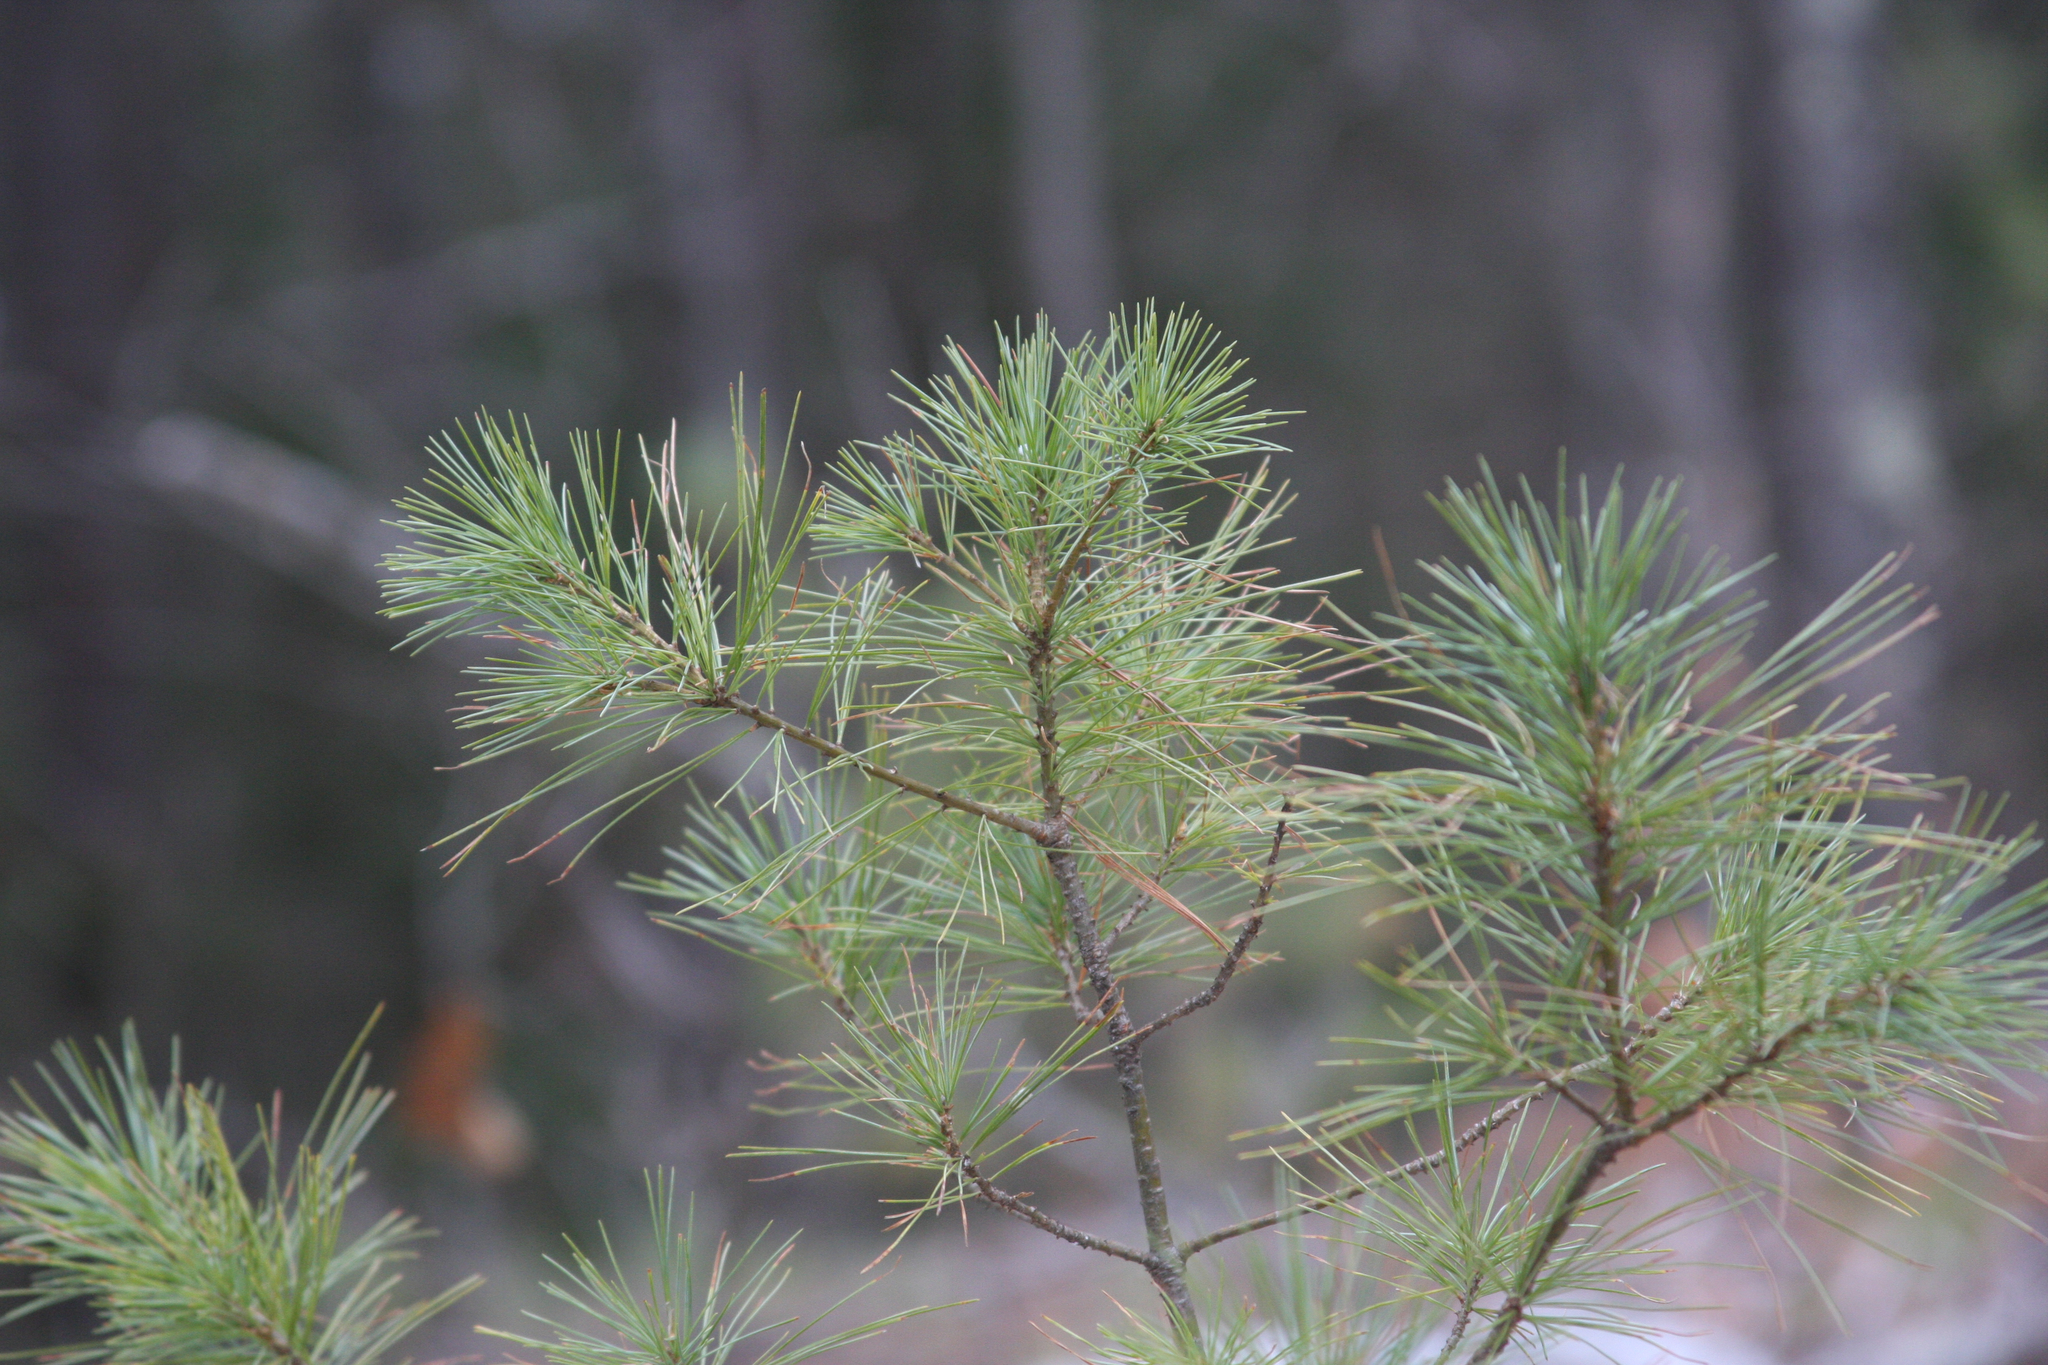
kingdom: Plantae
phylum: Tracheophyta
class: Pinopsida
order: Pinales
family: Pinaceae
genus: Pinus
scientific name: Pinus strobus
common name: Weymouth pine
